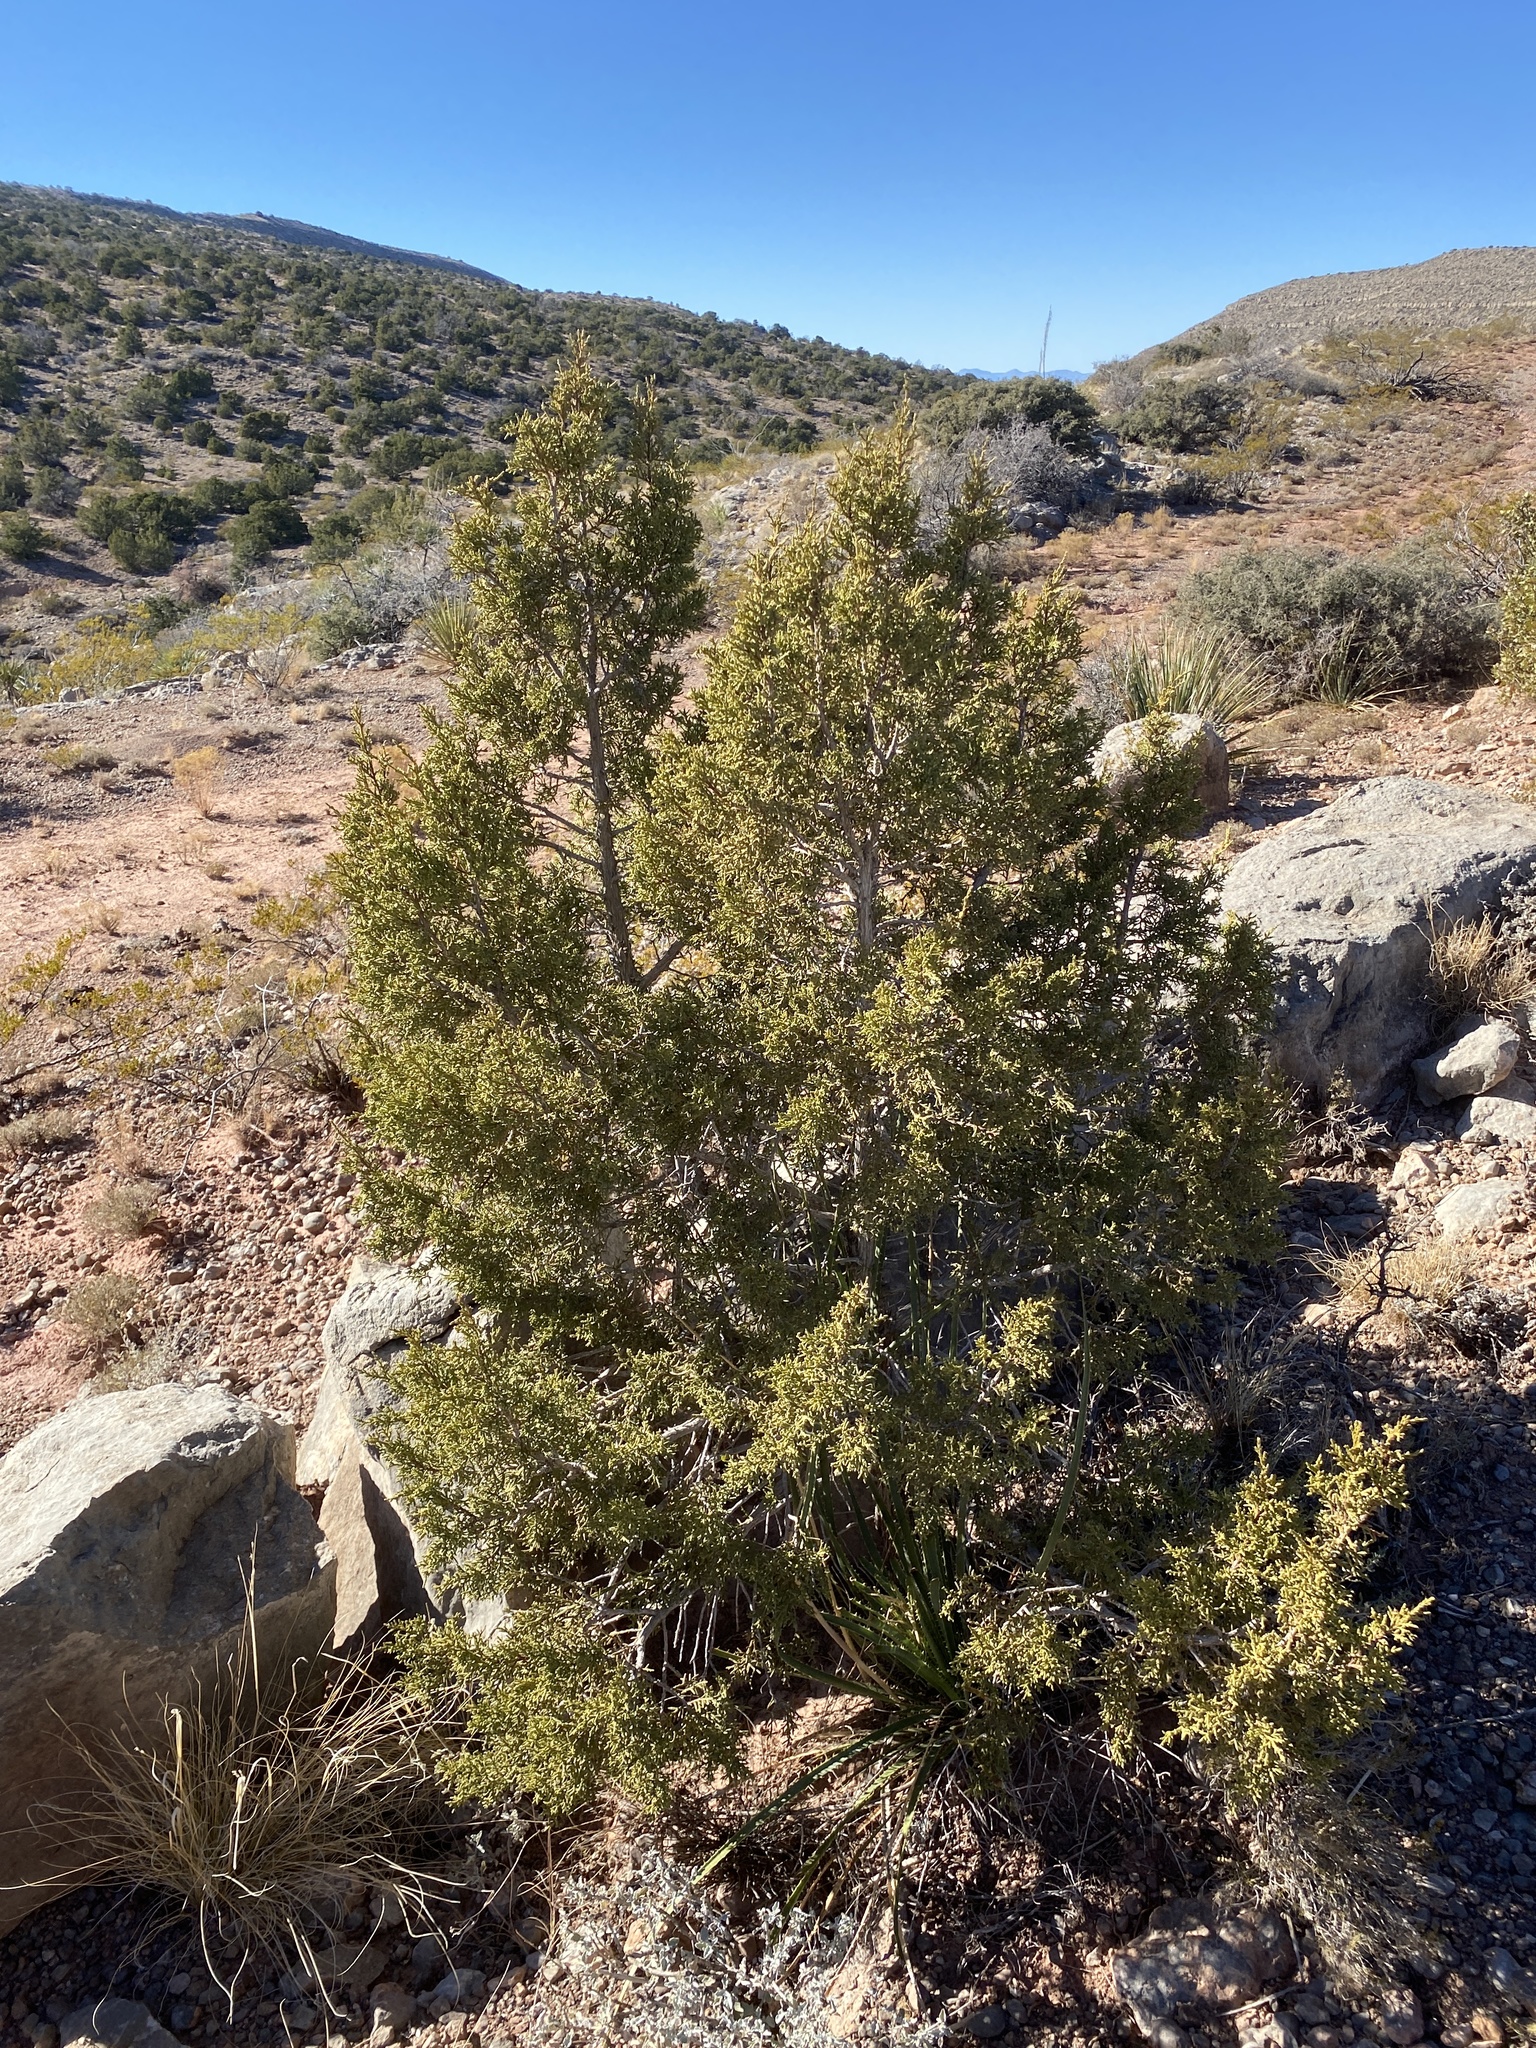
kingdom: Plantae
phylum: Tracheophyta
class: Pinopsida
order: Pinales
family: Cupressaceae
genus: Juniperus
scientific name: Juniperus monosperma
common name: One-seed juniper
